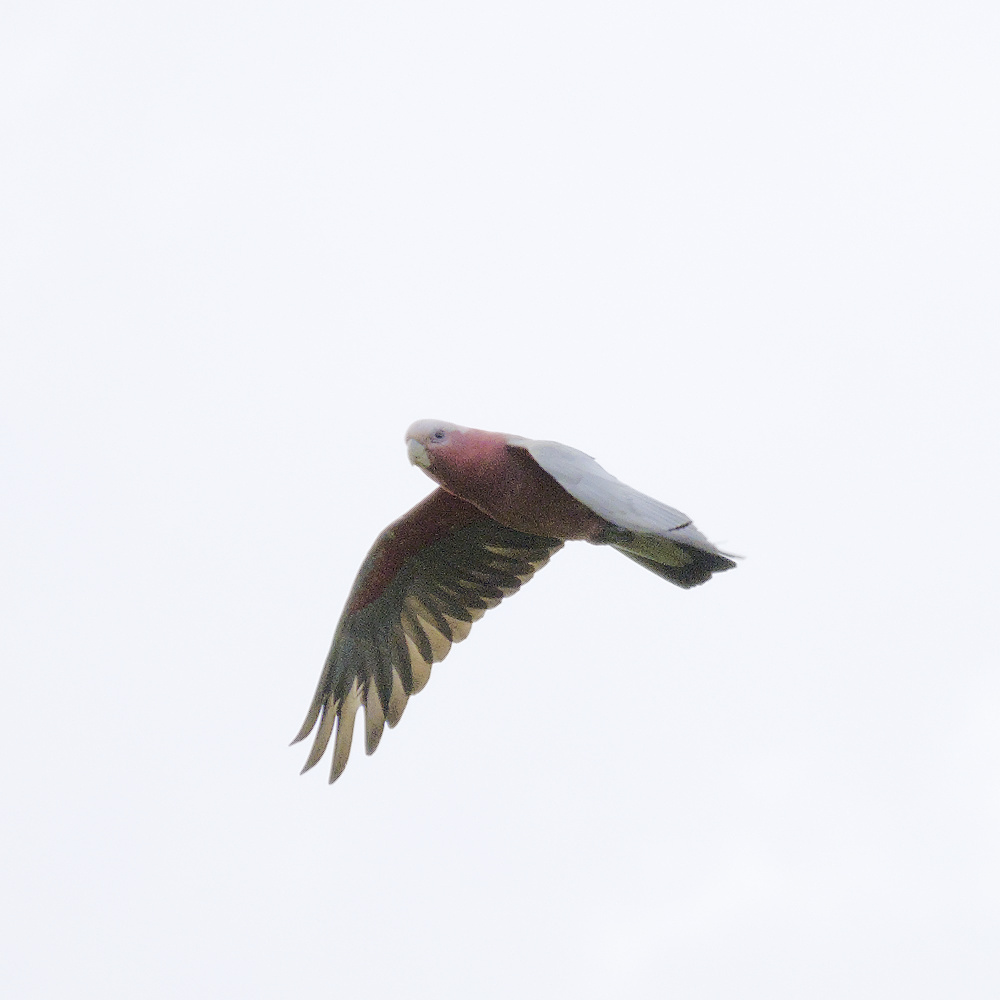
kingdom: Animalia
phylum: Chordata
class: Aves
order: Psittaciformes
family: Psittacidae
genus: Eolophus
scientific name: Eolophus roseicapilla
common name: Galah
